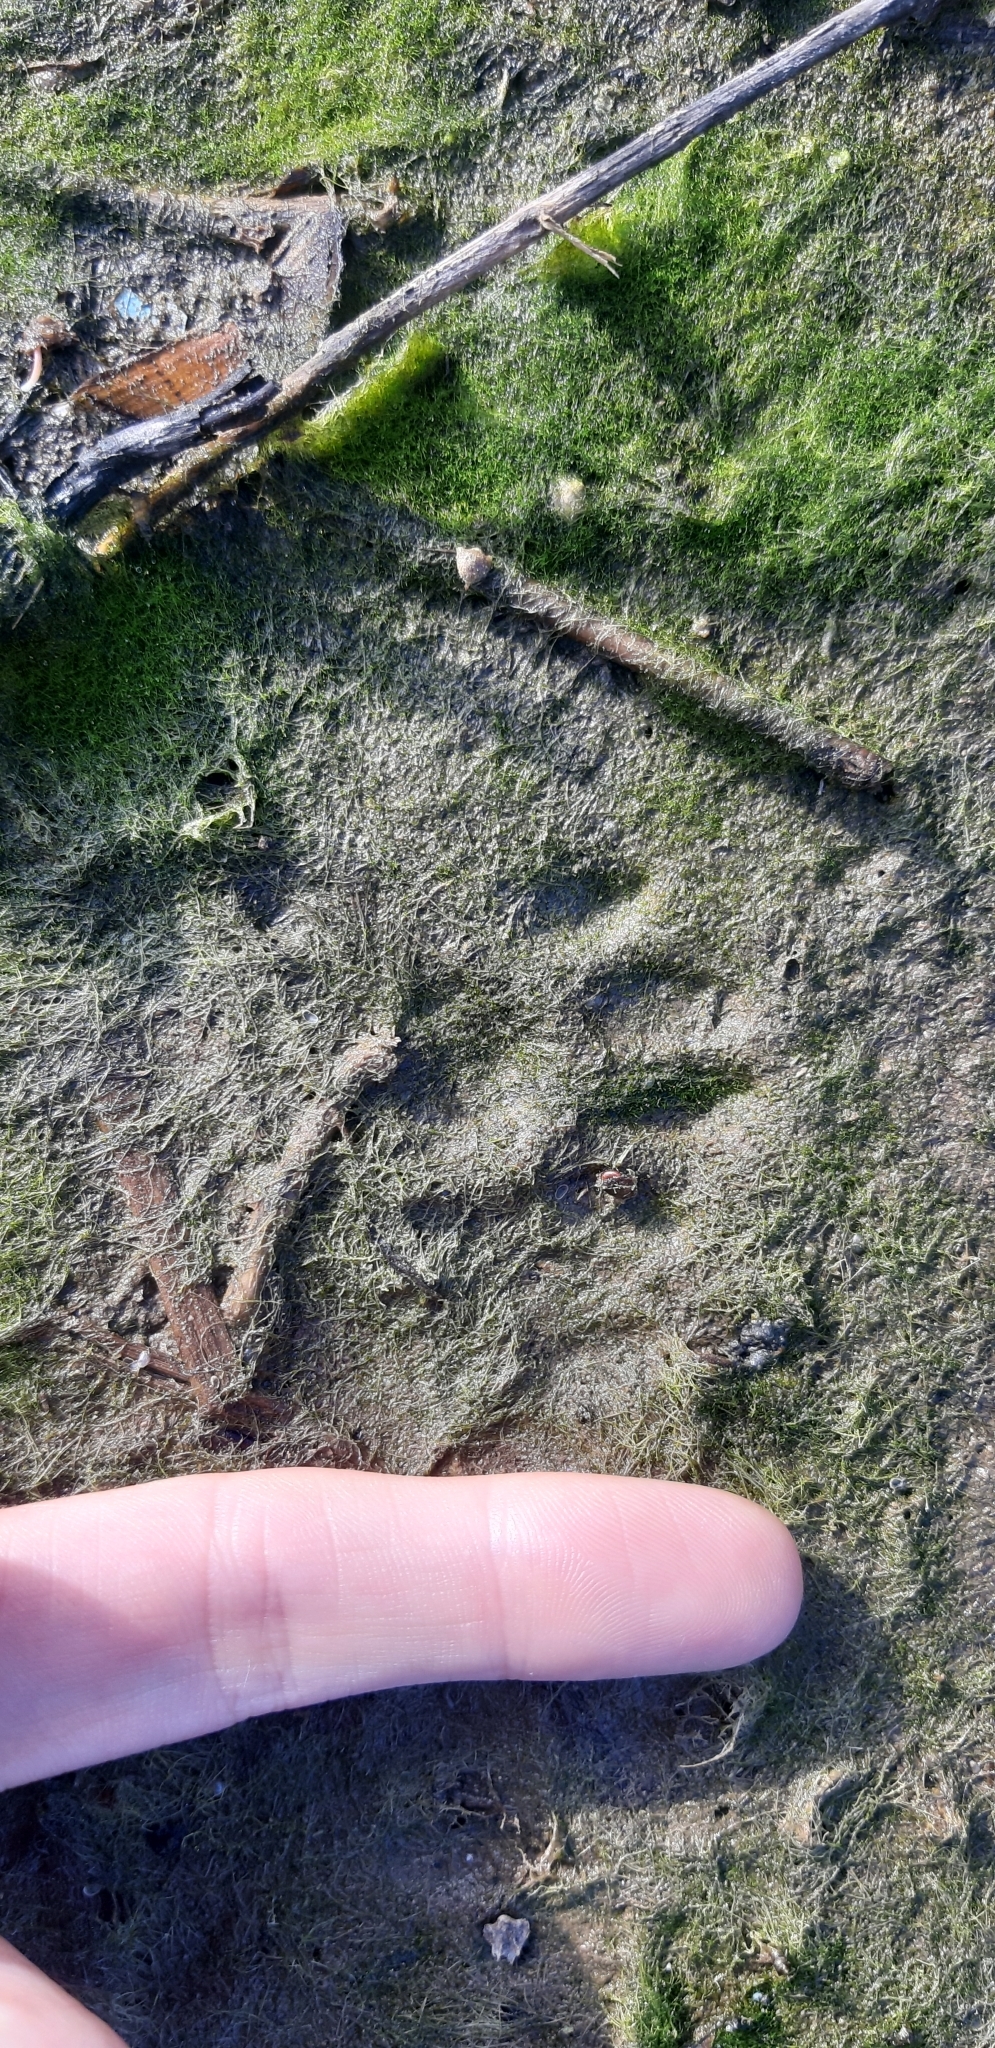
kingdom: Animalia
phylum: Chordata
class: Mammalia
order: Carnivora
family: Mustelidae
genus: Martes
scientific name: Martes foina
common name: Beech marten
